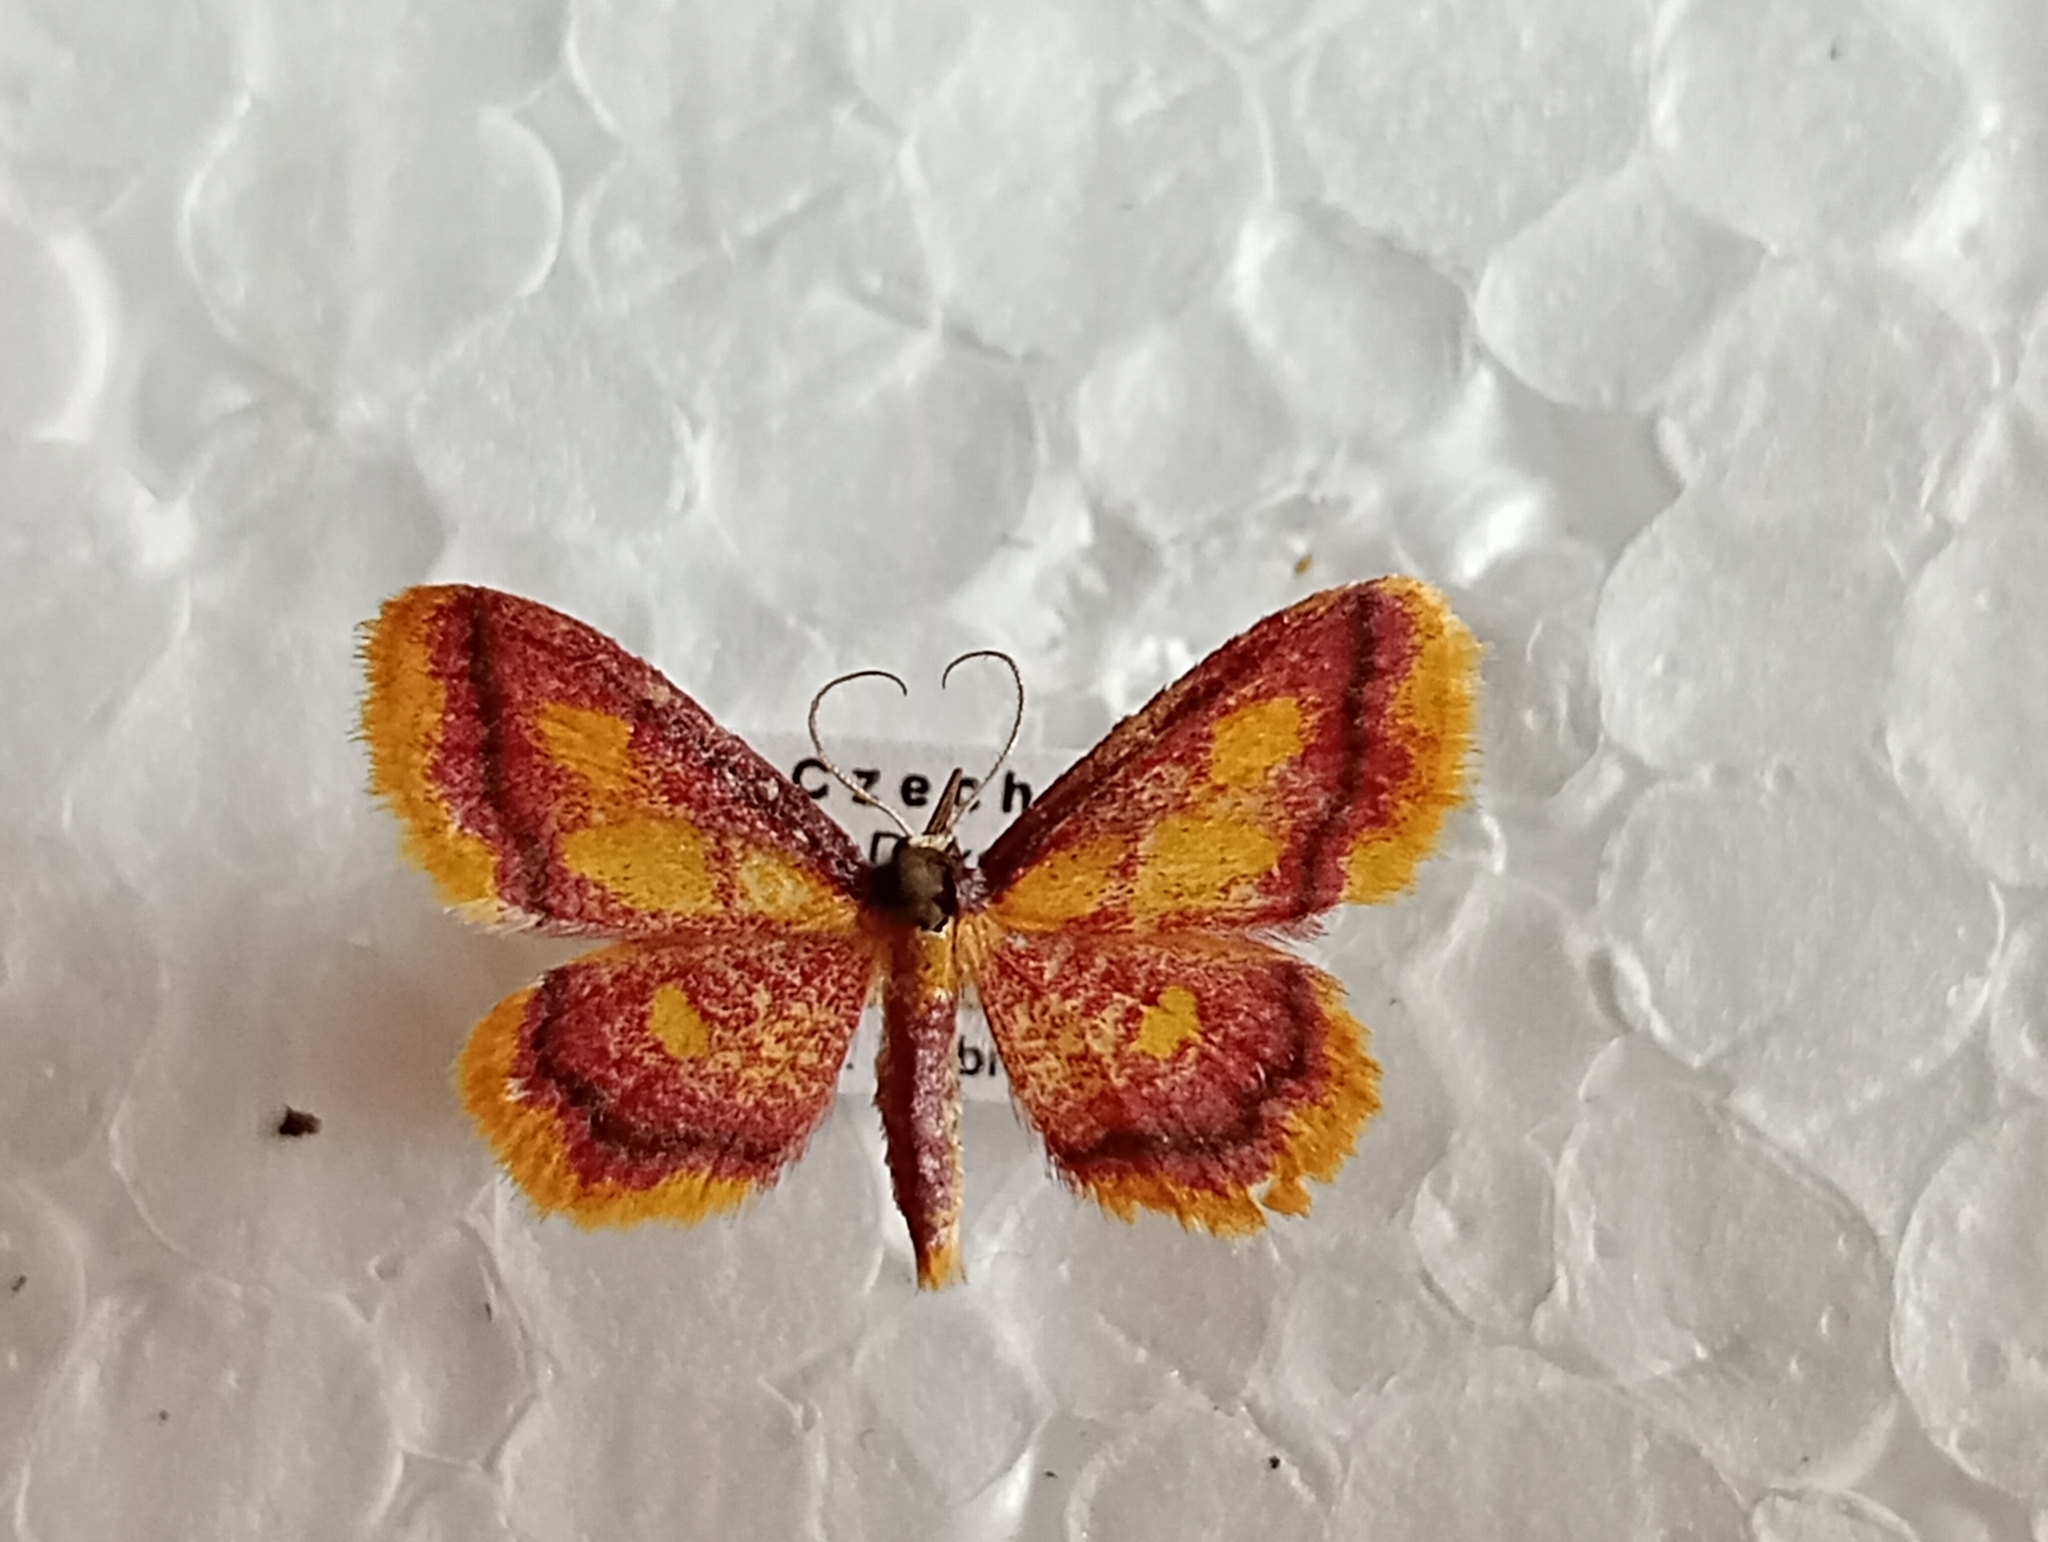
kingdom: Animalia
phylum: Arthropoda
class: Insecta
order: Lepidoptera
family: Geometridae
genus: Idaea
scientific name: Idaea muricata
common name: Purple-bordered gold
